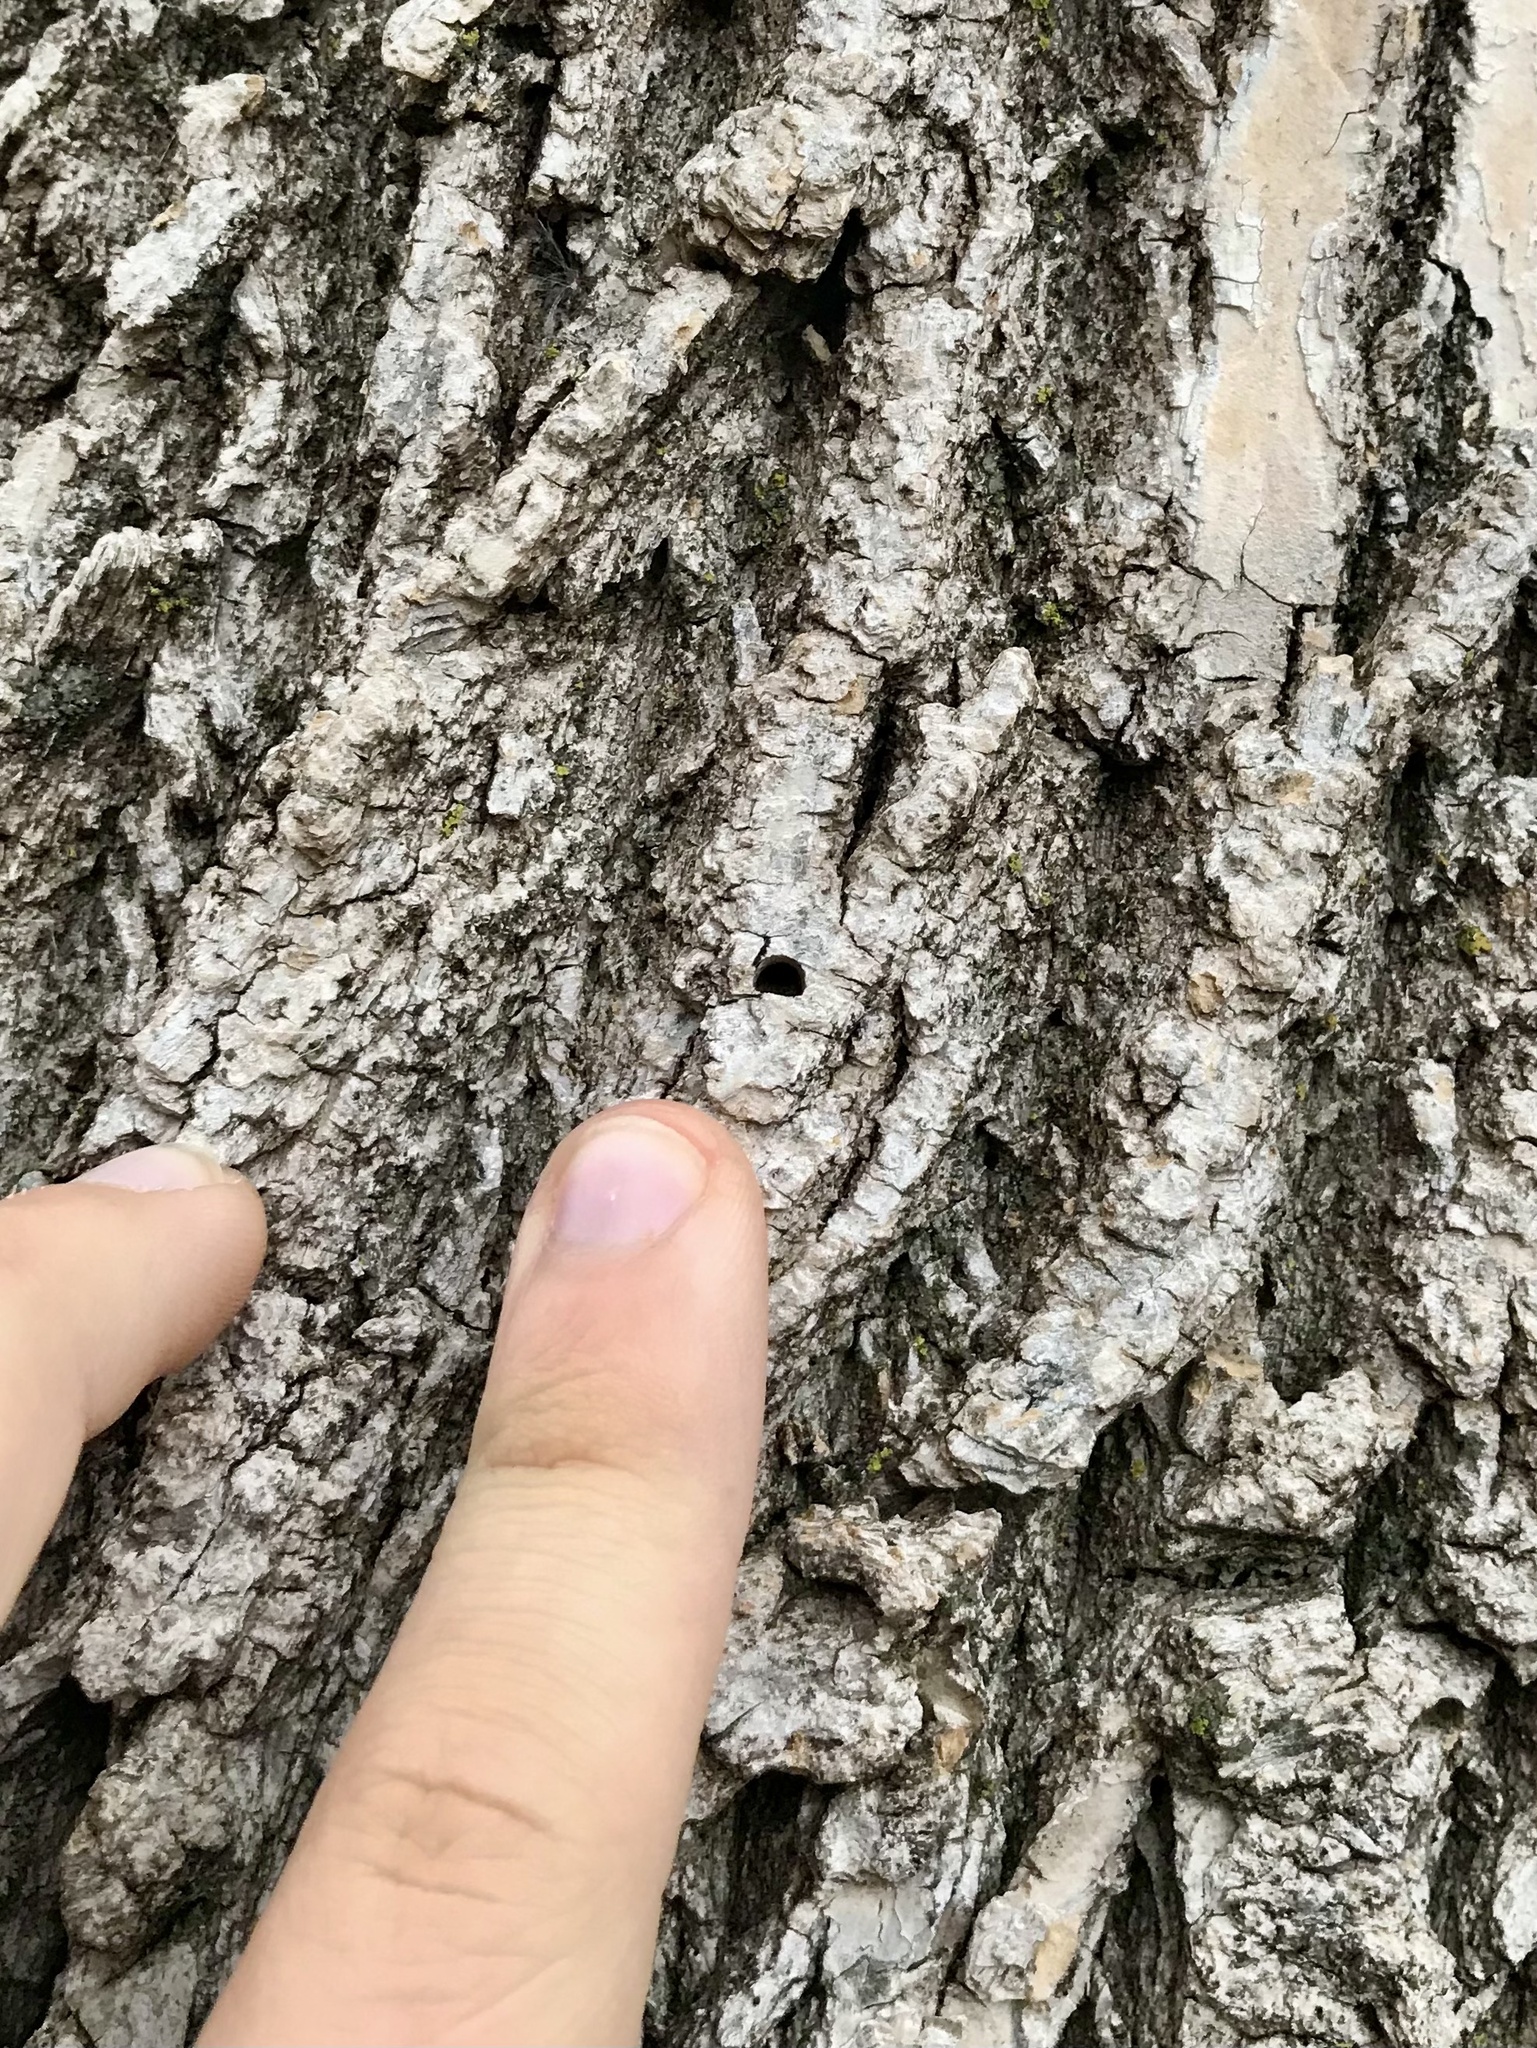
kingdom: Animalia
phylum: Arthropoda
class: Insecta
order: Coleoptera
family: Buprestidae
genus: Agrilus
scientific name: Agrilus planipennis
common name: Emerald ash borer
